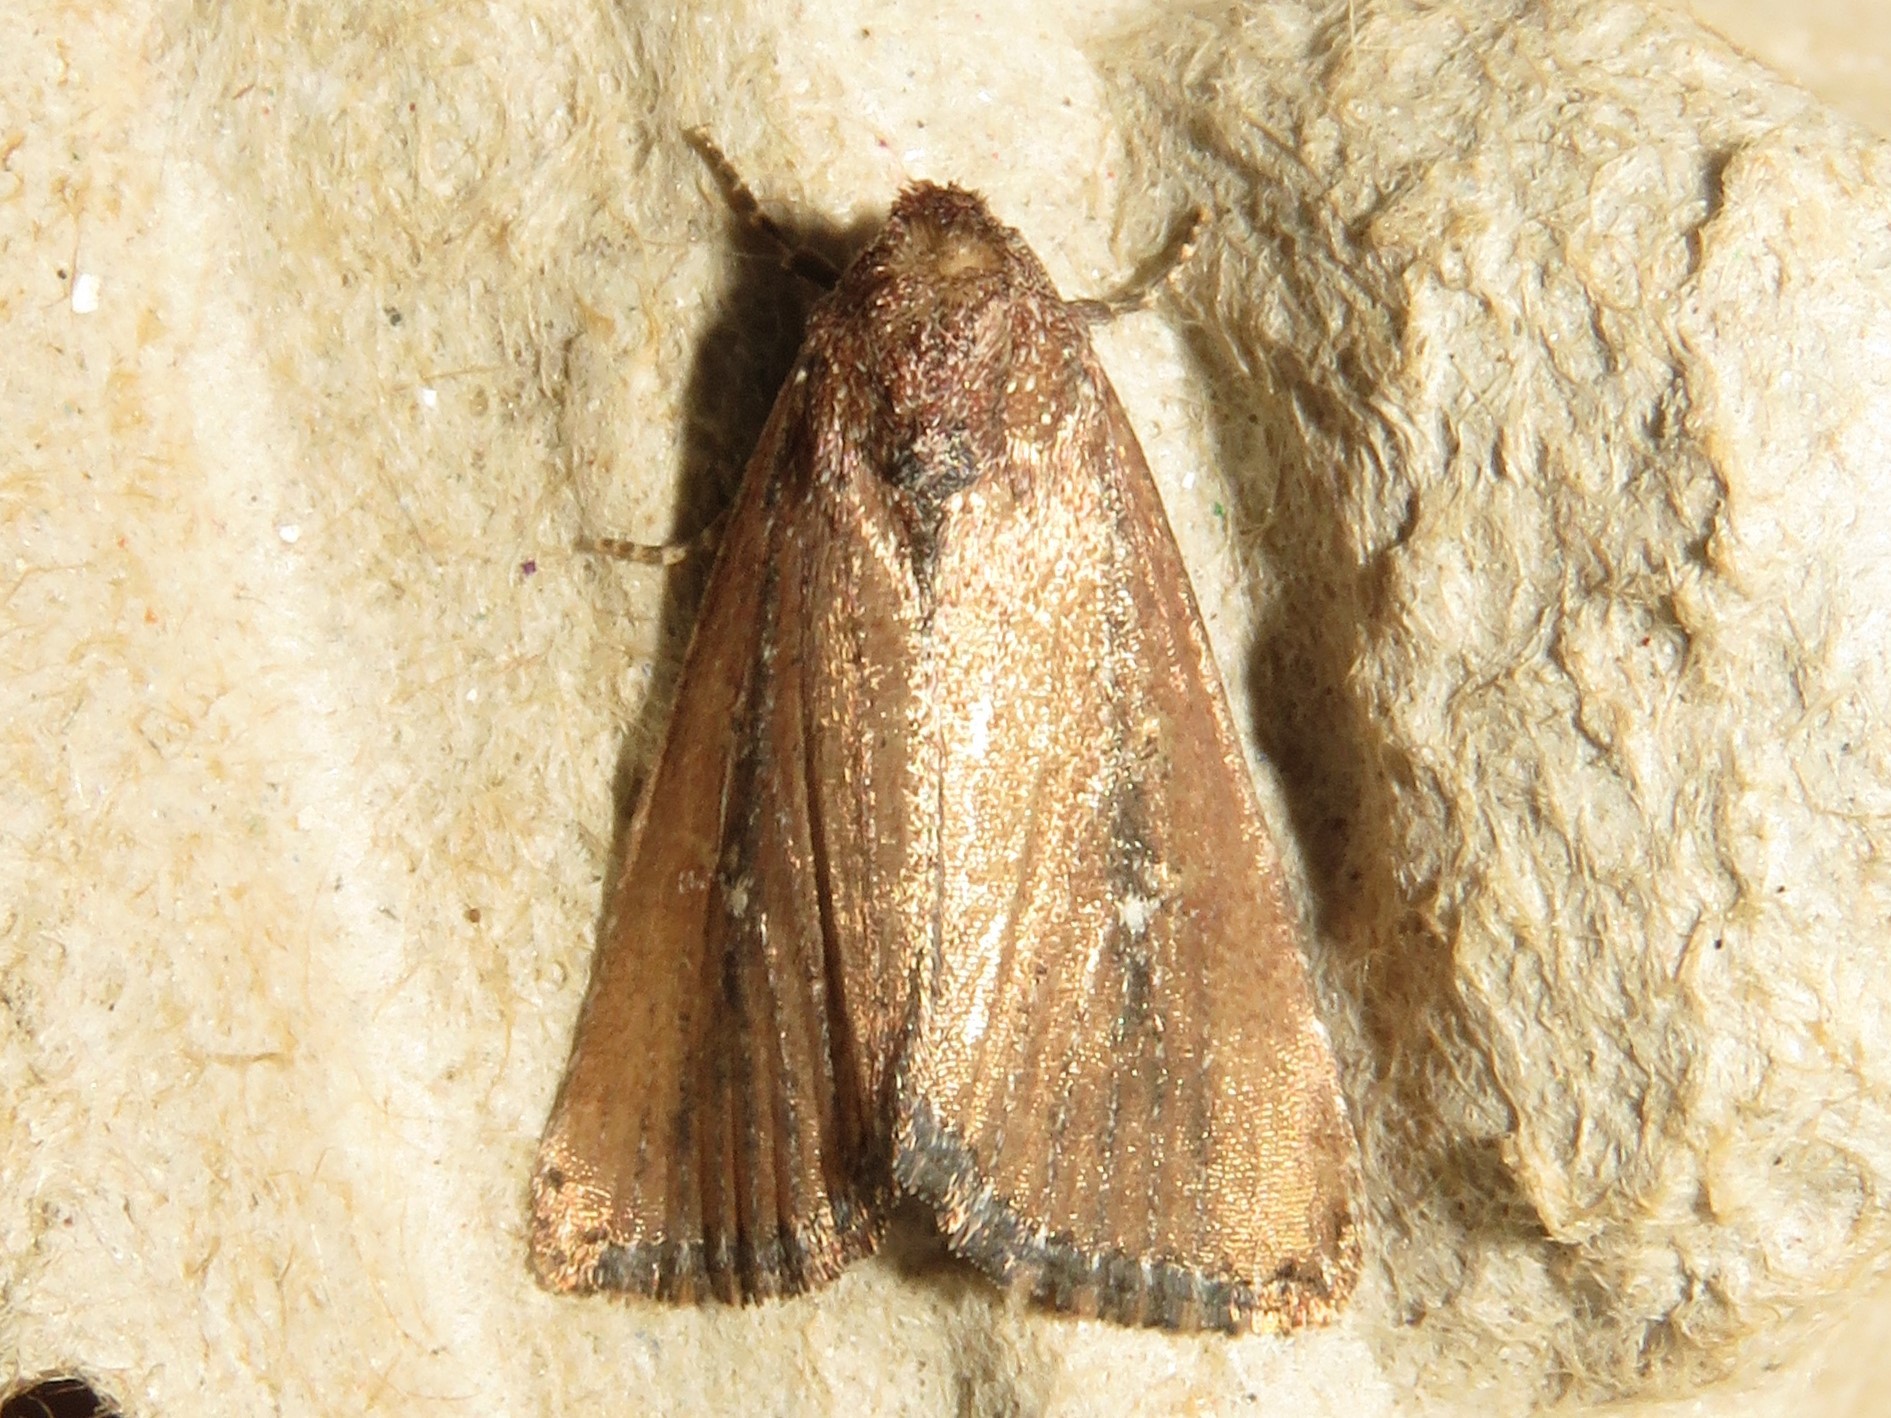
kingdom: Animalia
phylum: Arthropoda
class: Insecta
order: Lepidoptera
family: Noctuidae
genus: Condica
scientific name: Condica videns
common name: White-dotted groundling
